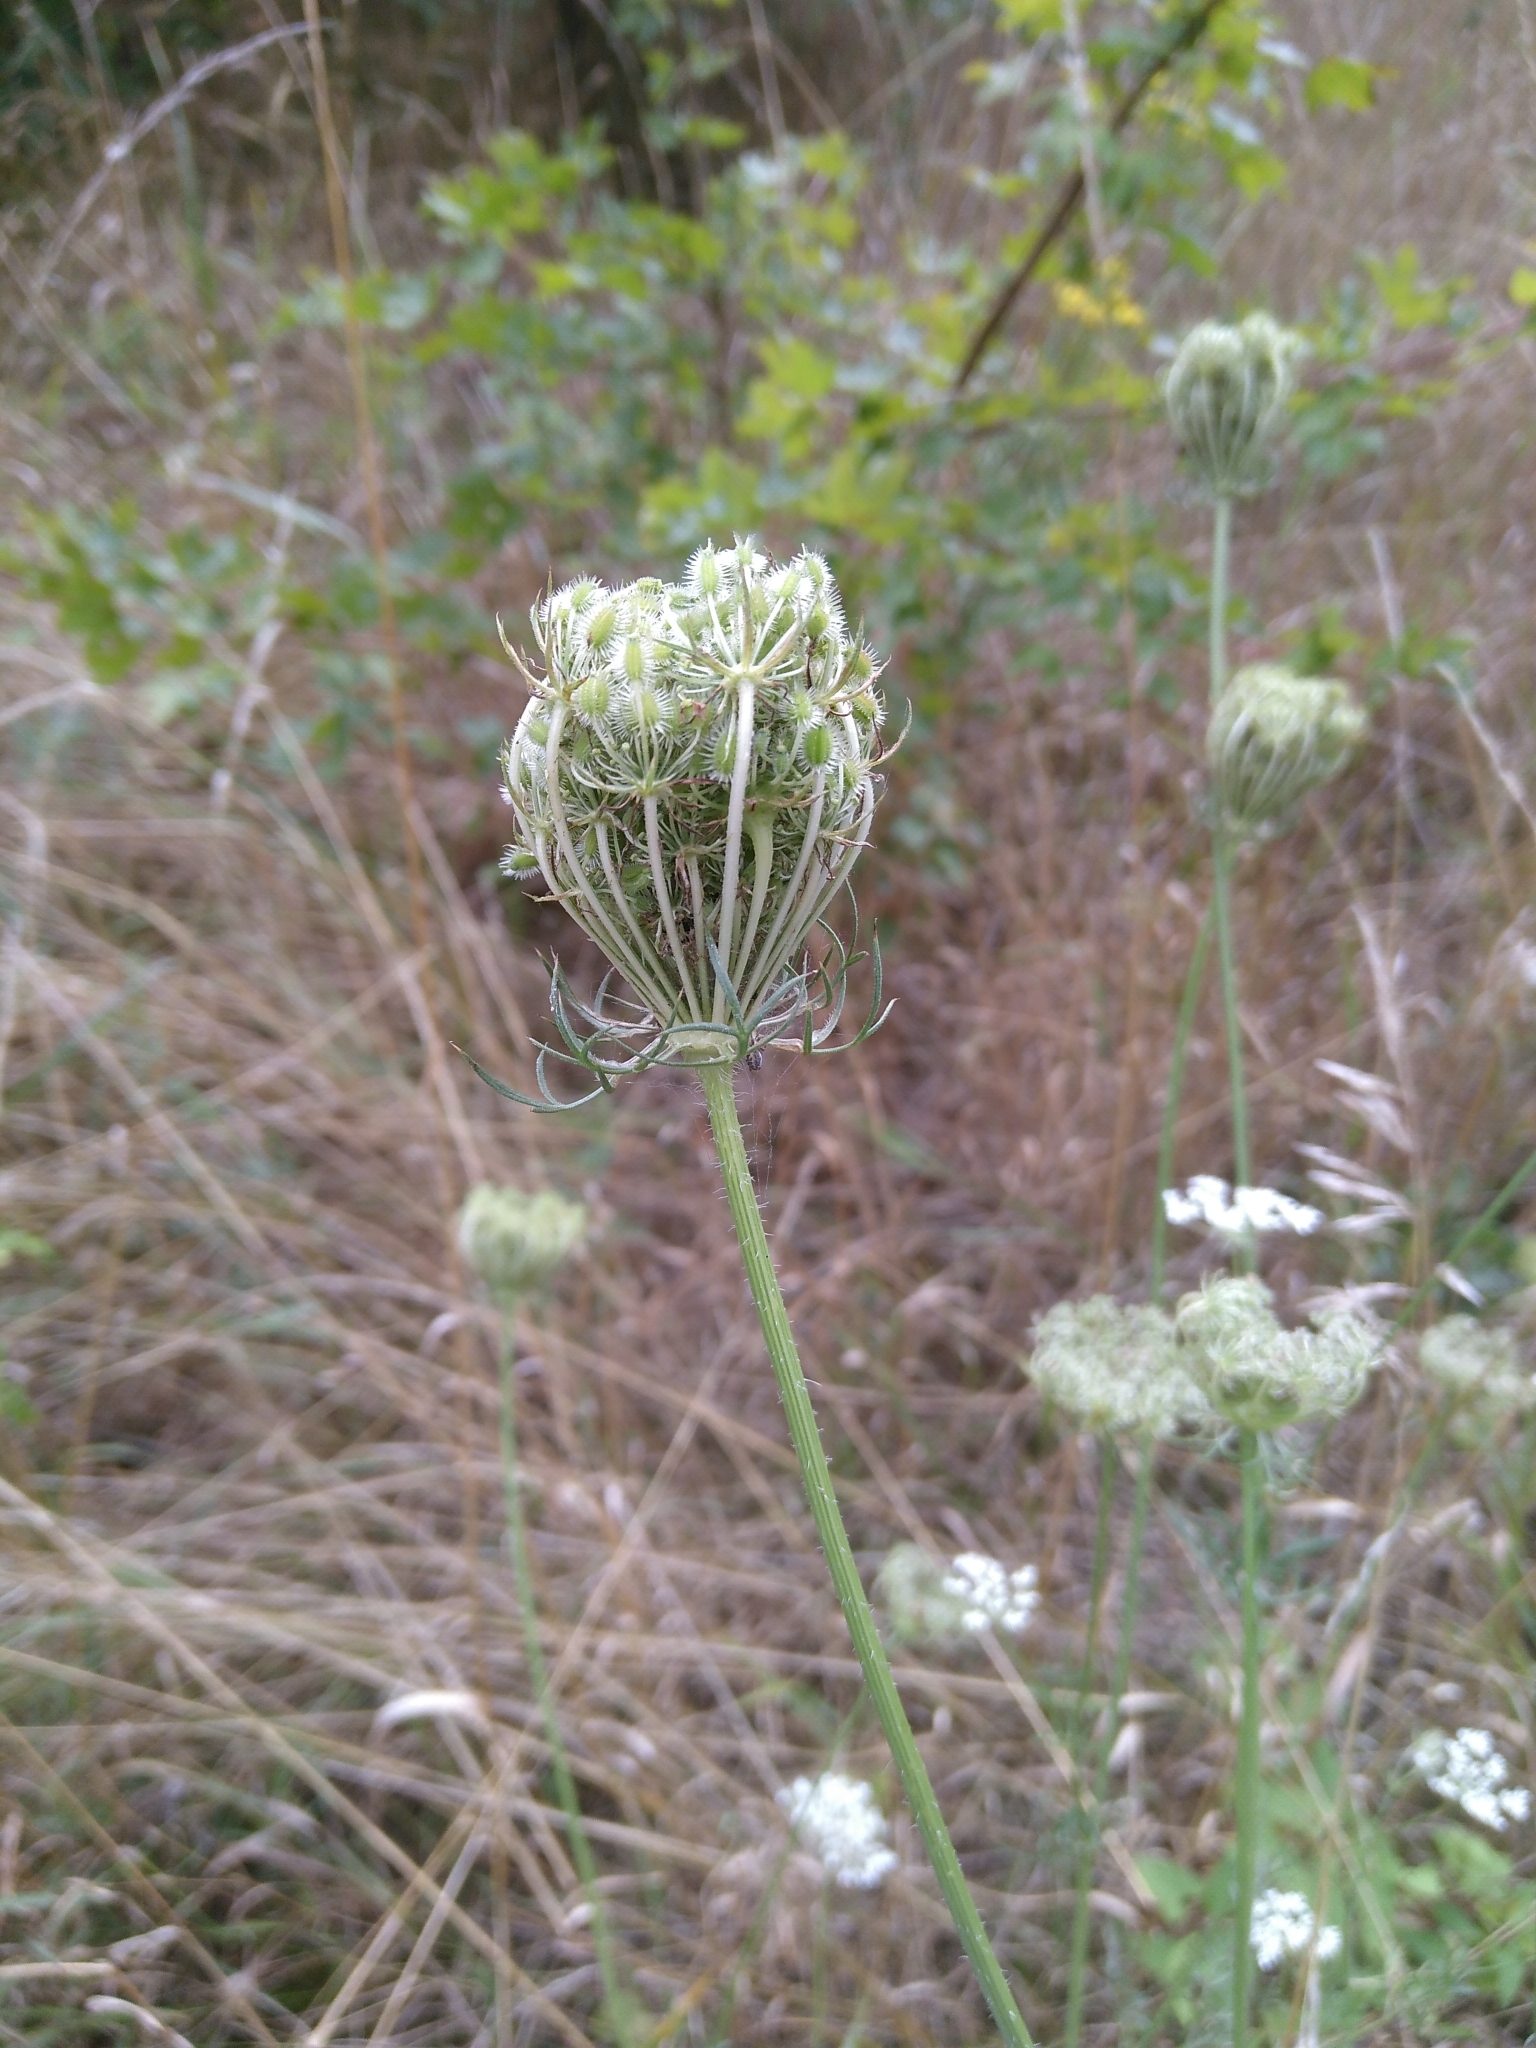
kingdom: Plantae
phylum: Tracheophyta
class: Magnoliopsida
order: Apiales
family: Apiaceae
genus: Daucus
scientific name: Daucus carota
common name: Wild carrot
